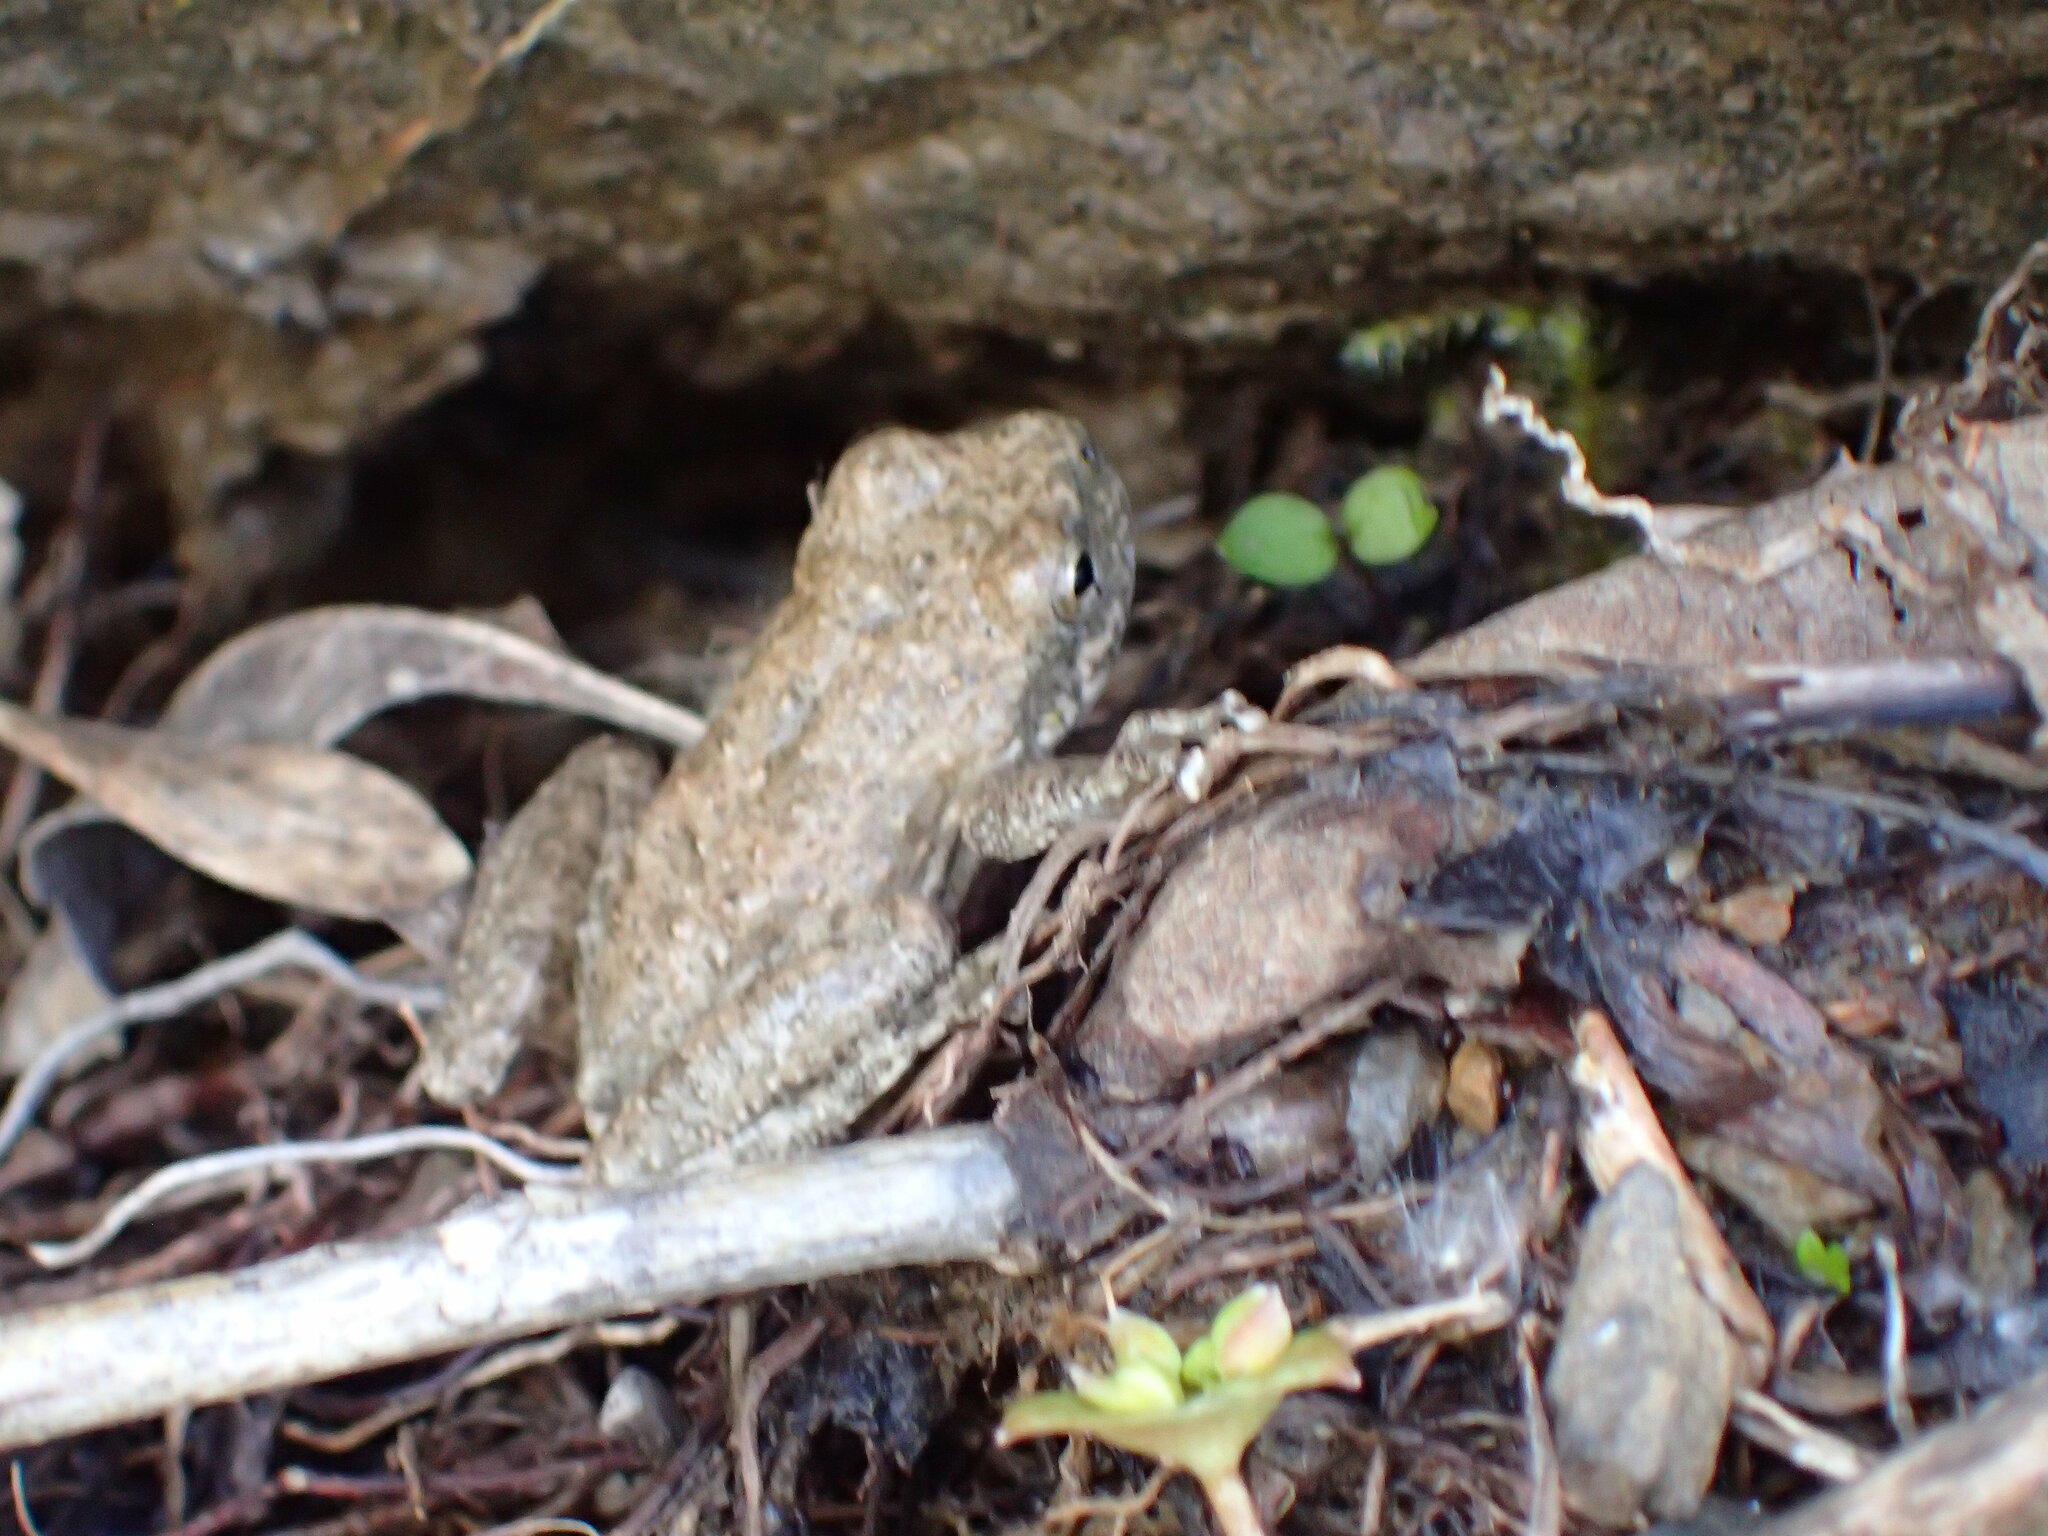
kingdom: Animalia
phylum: Chordata
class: Amphibia
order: Anura
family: Hylidae
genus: Pseudacris
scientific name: Pseudacris cadaverina
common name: California chorus frog
